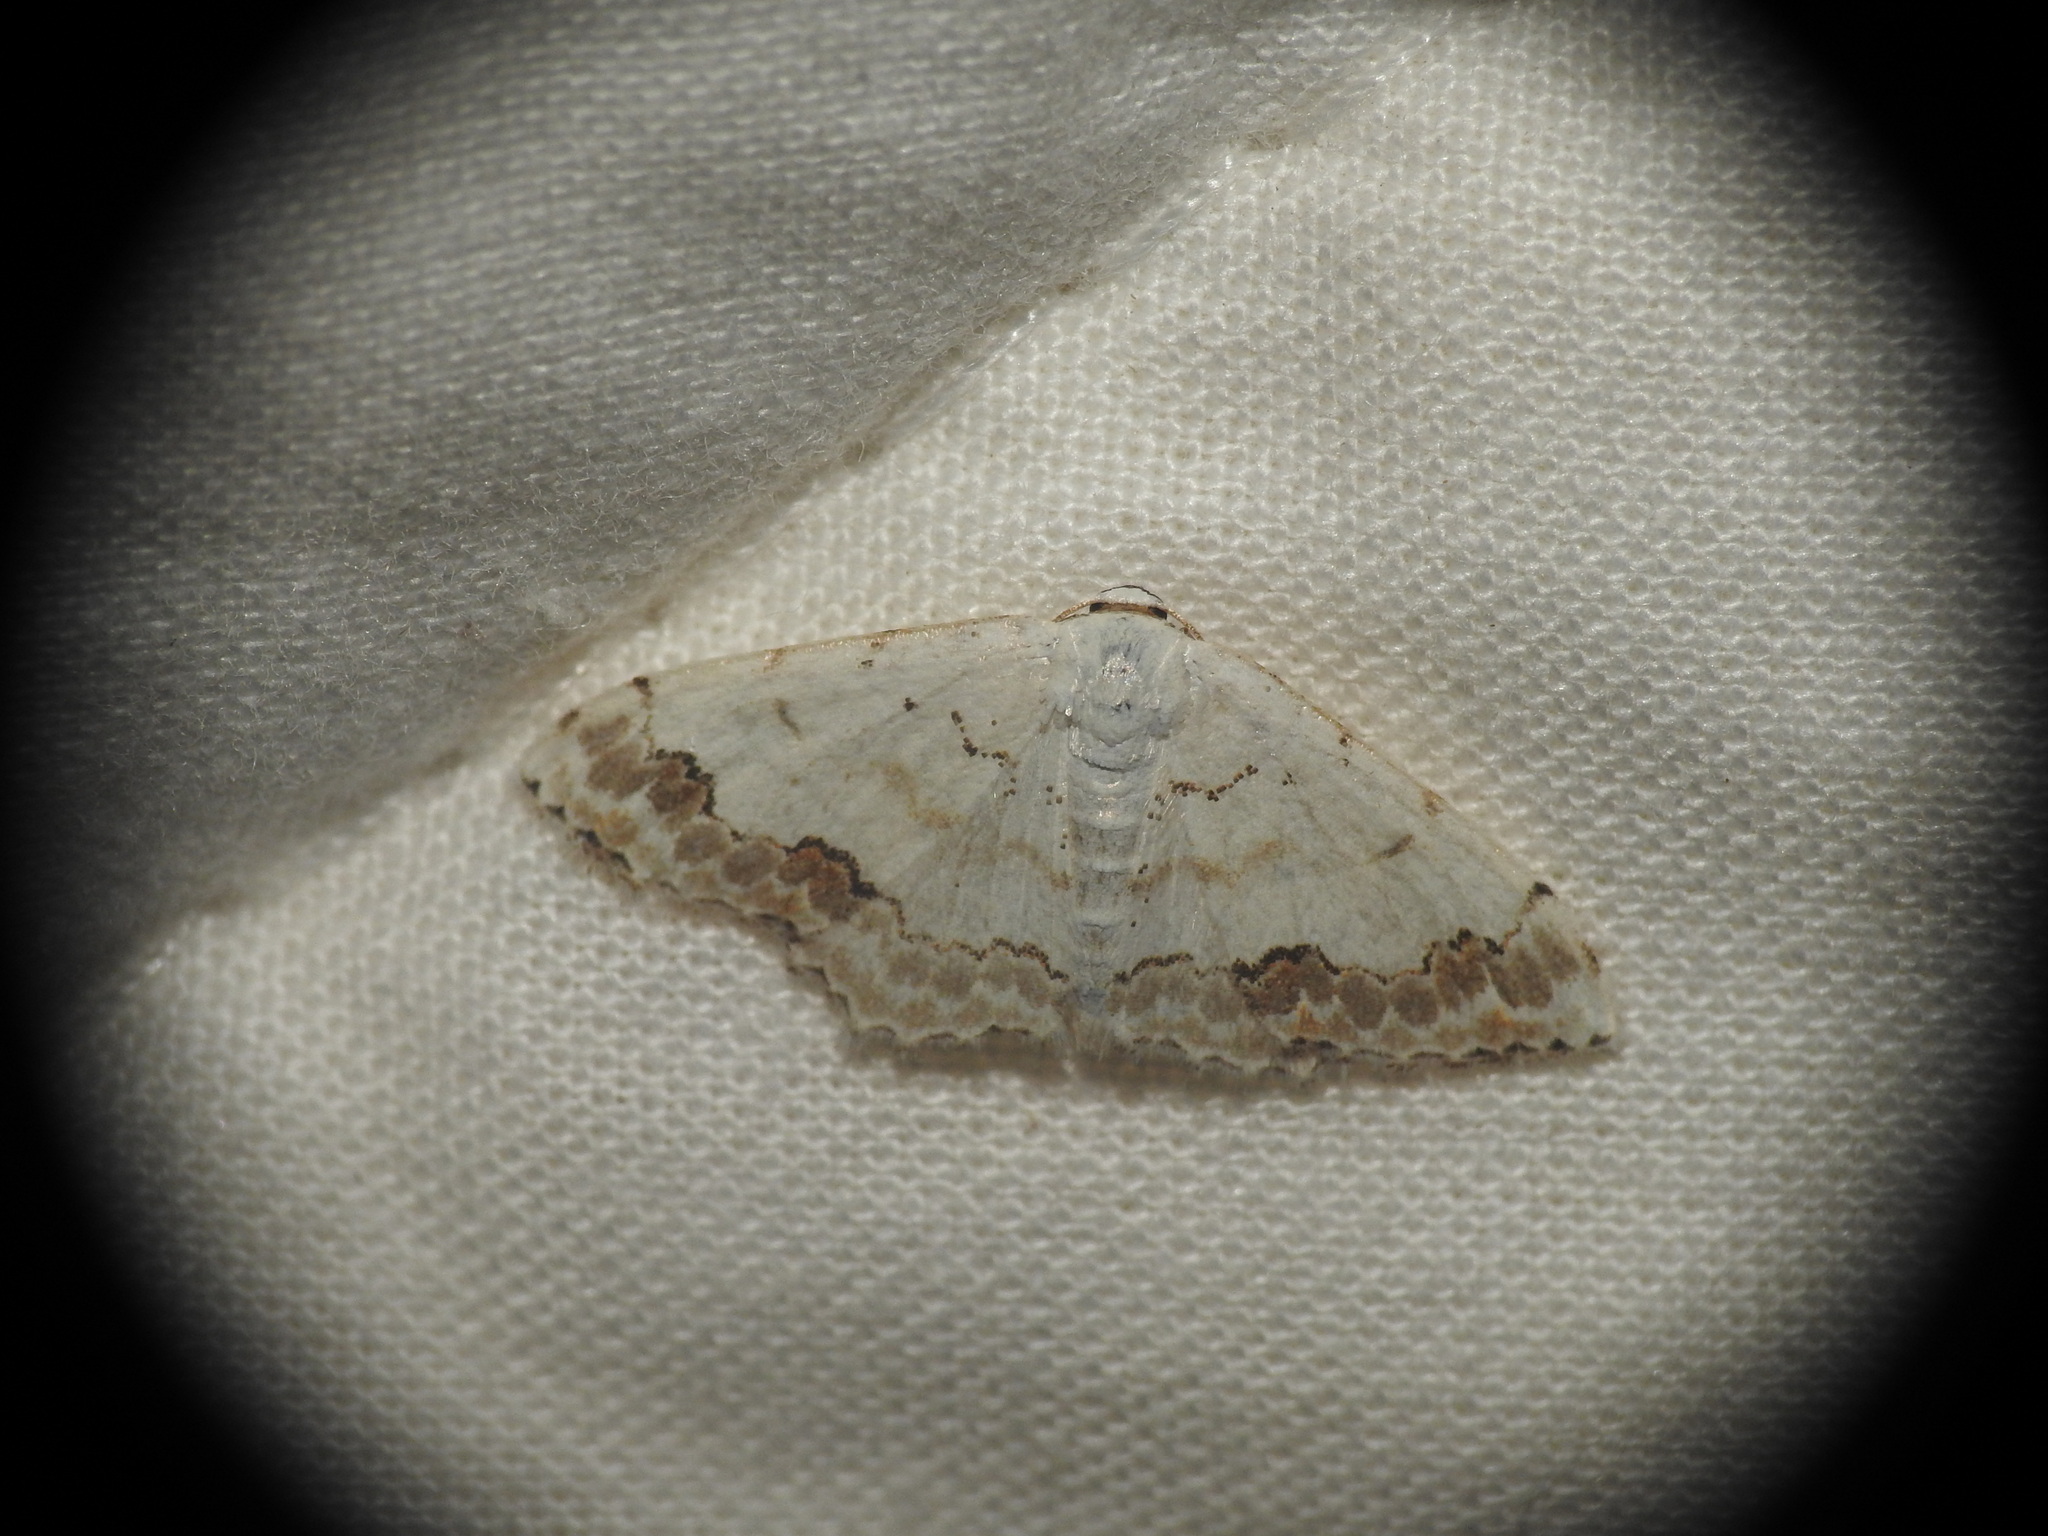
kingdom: Animalia
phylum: Arthropoda
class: Insecta
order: Lepidoptera
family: Geometridae
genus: Scopula
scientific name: Scopula ornata
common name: Lace border
